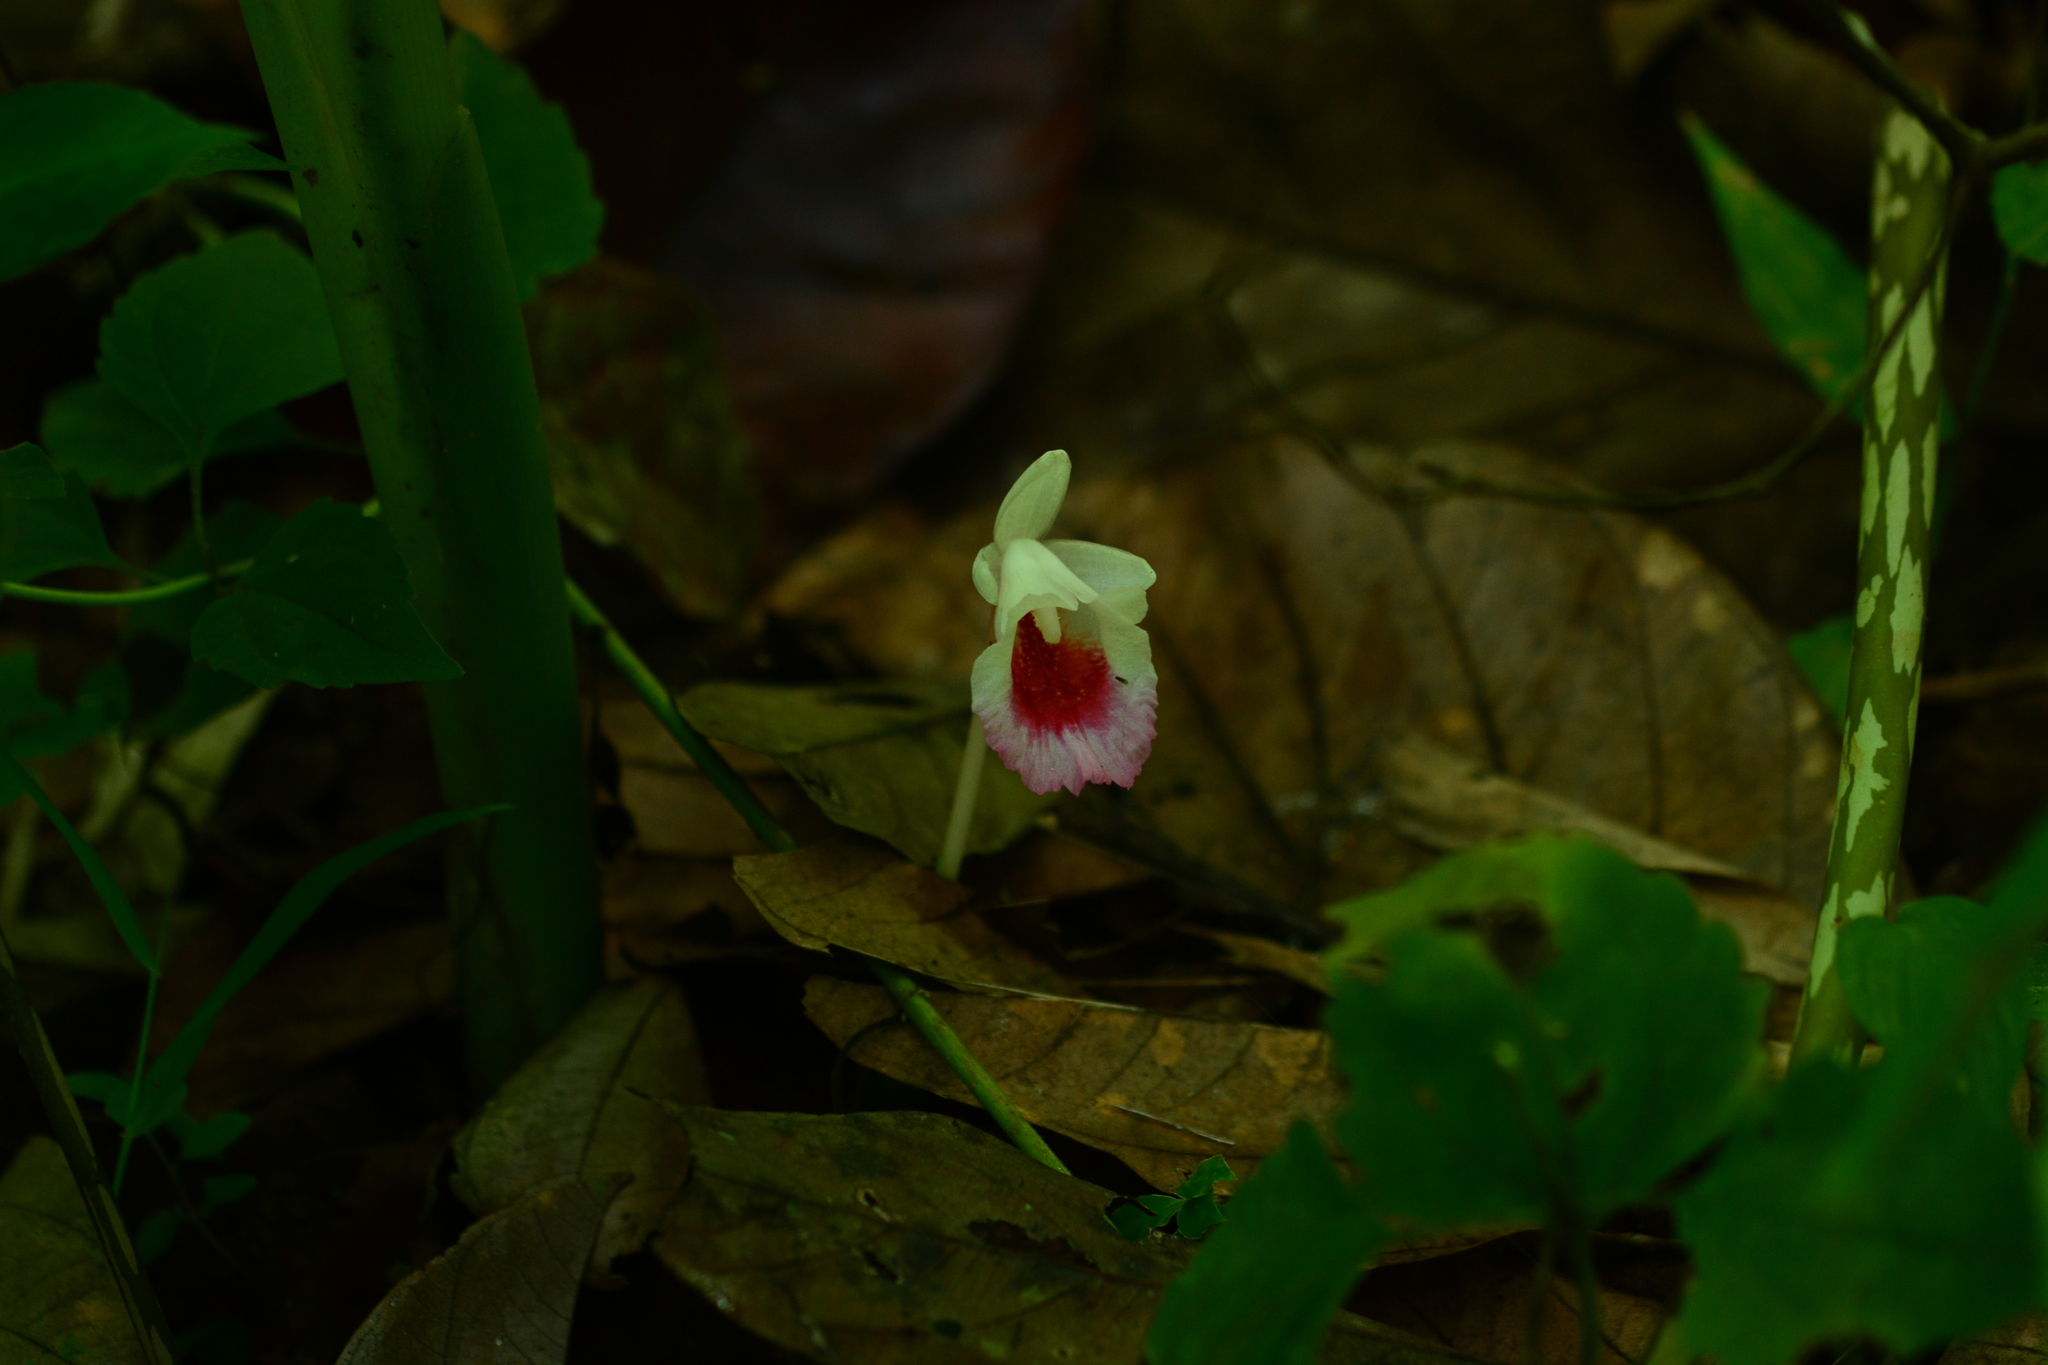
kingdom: Plantae
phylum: Tracheophyta
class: Liliopsida
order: Zingiberales
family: Zingiberaceae
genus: Boesenbergia
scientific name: Boesenbergia hamiltonii
